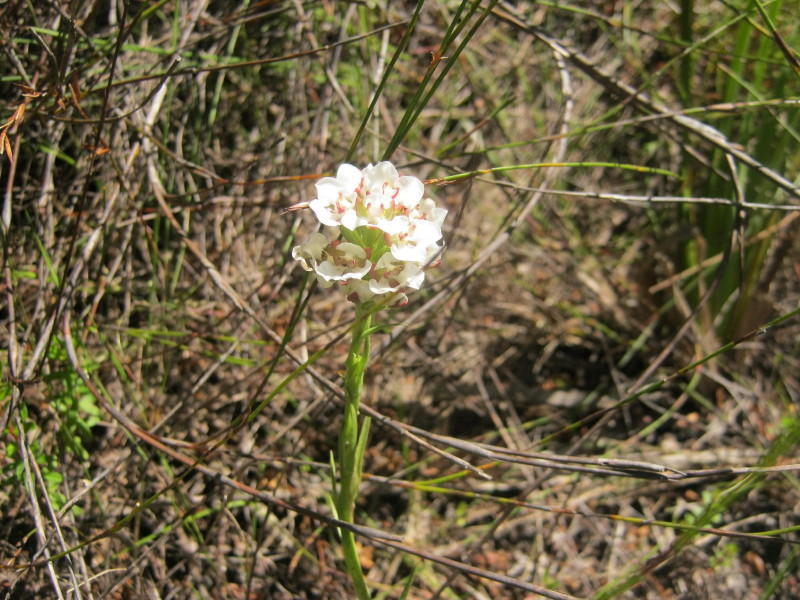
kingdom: Plantae
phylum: Tracheophyta
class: Liliopsida
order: Asparagales
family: Orchidaceae
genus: Ceratandra
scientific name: Ceratandra globosa
